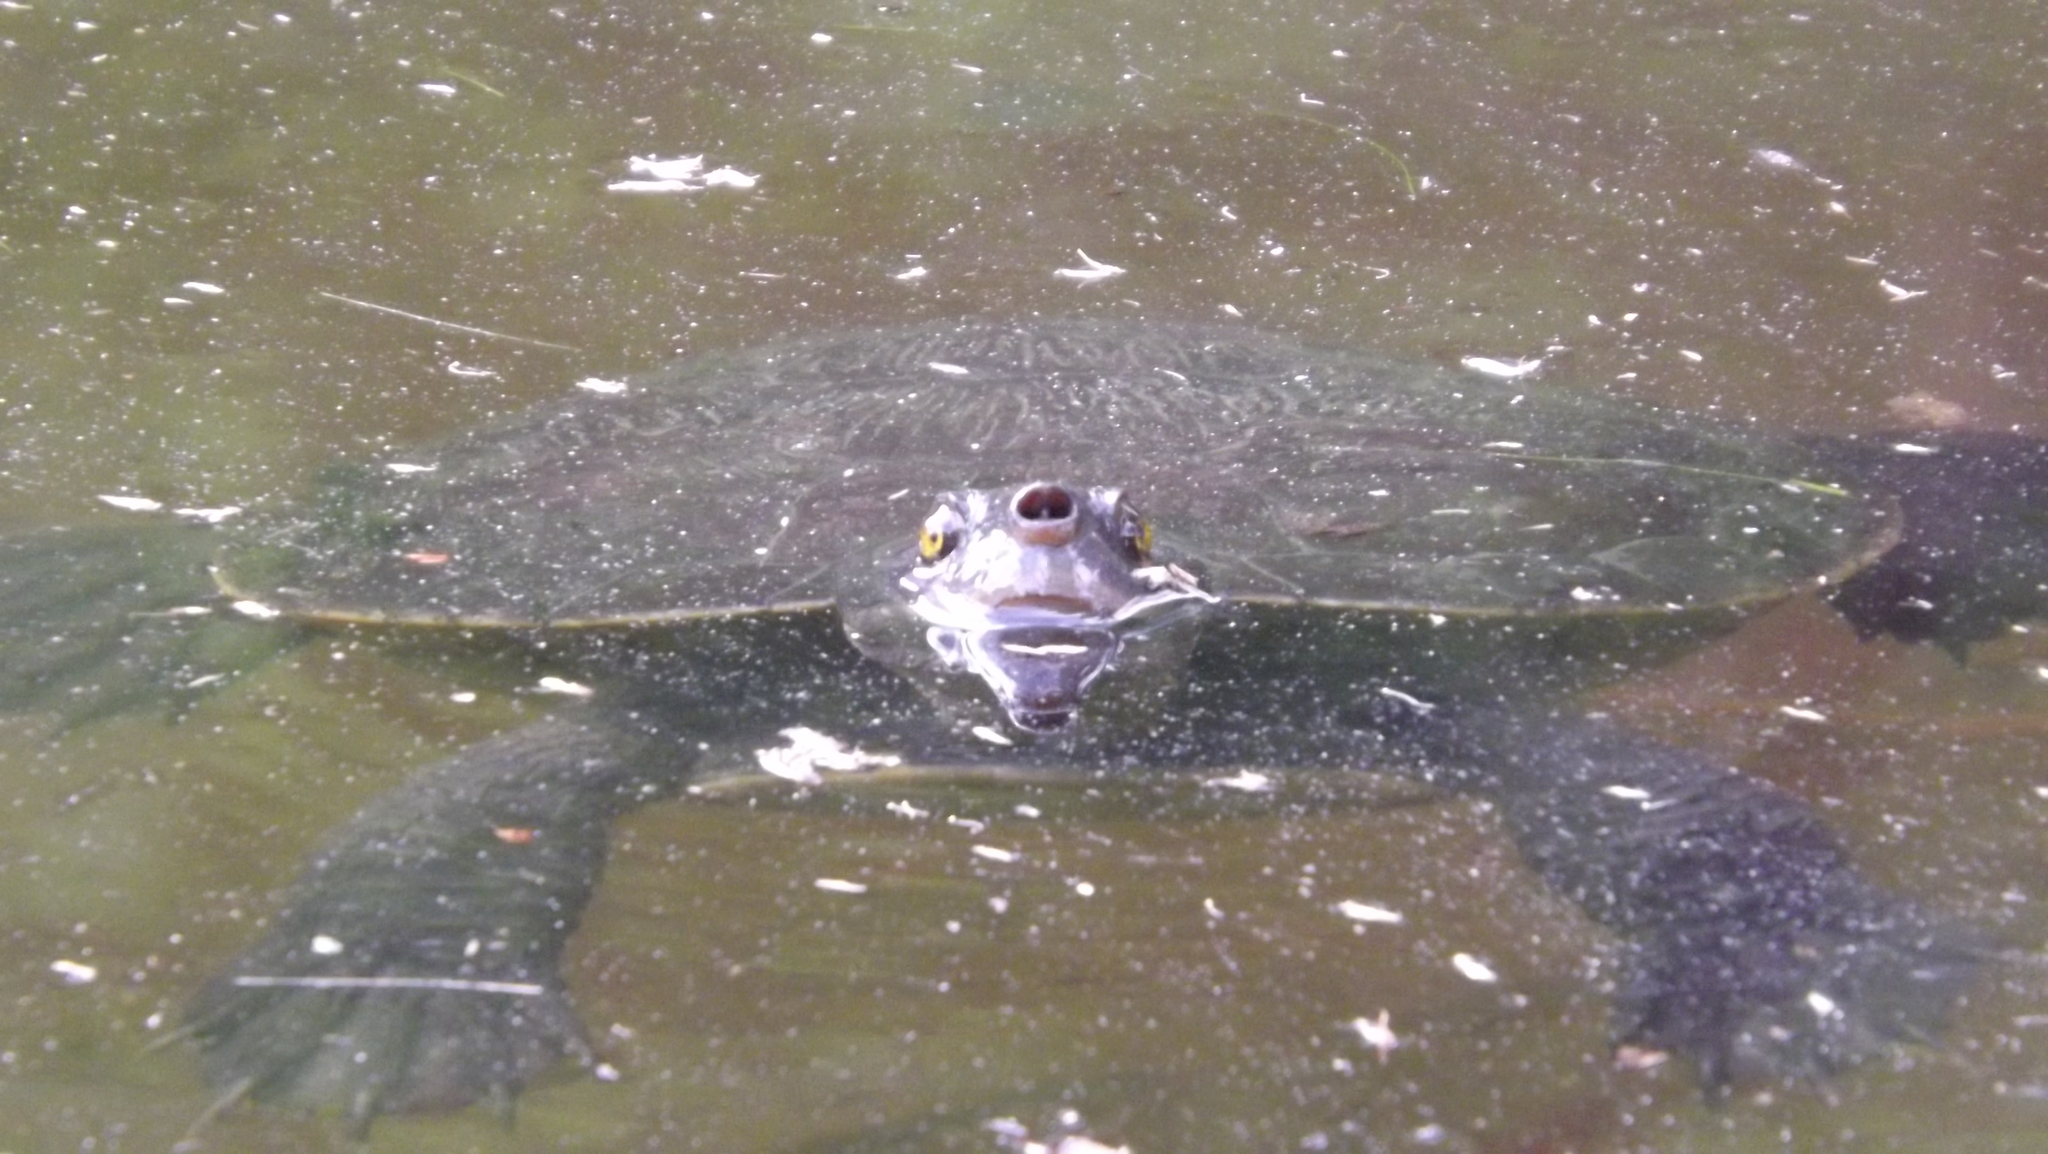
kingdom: Animalia
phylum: Chordata
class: Testudines
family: Chelidae
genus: Emydura
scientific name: Emydura macquarii
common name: Murray river turtle
